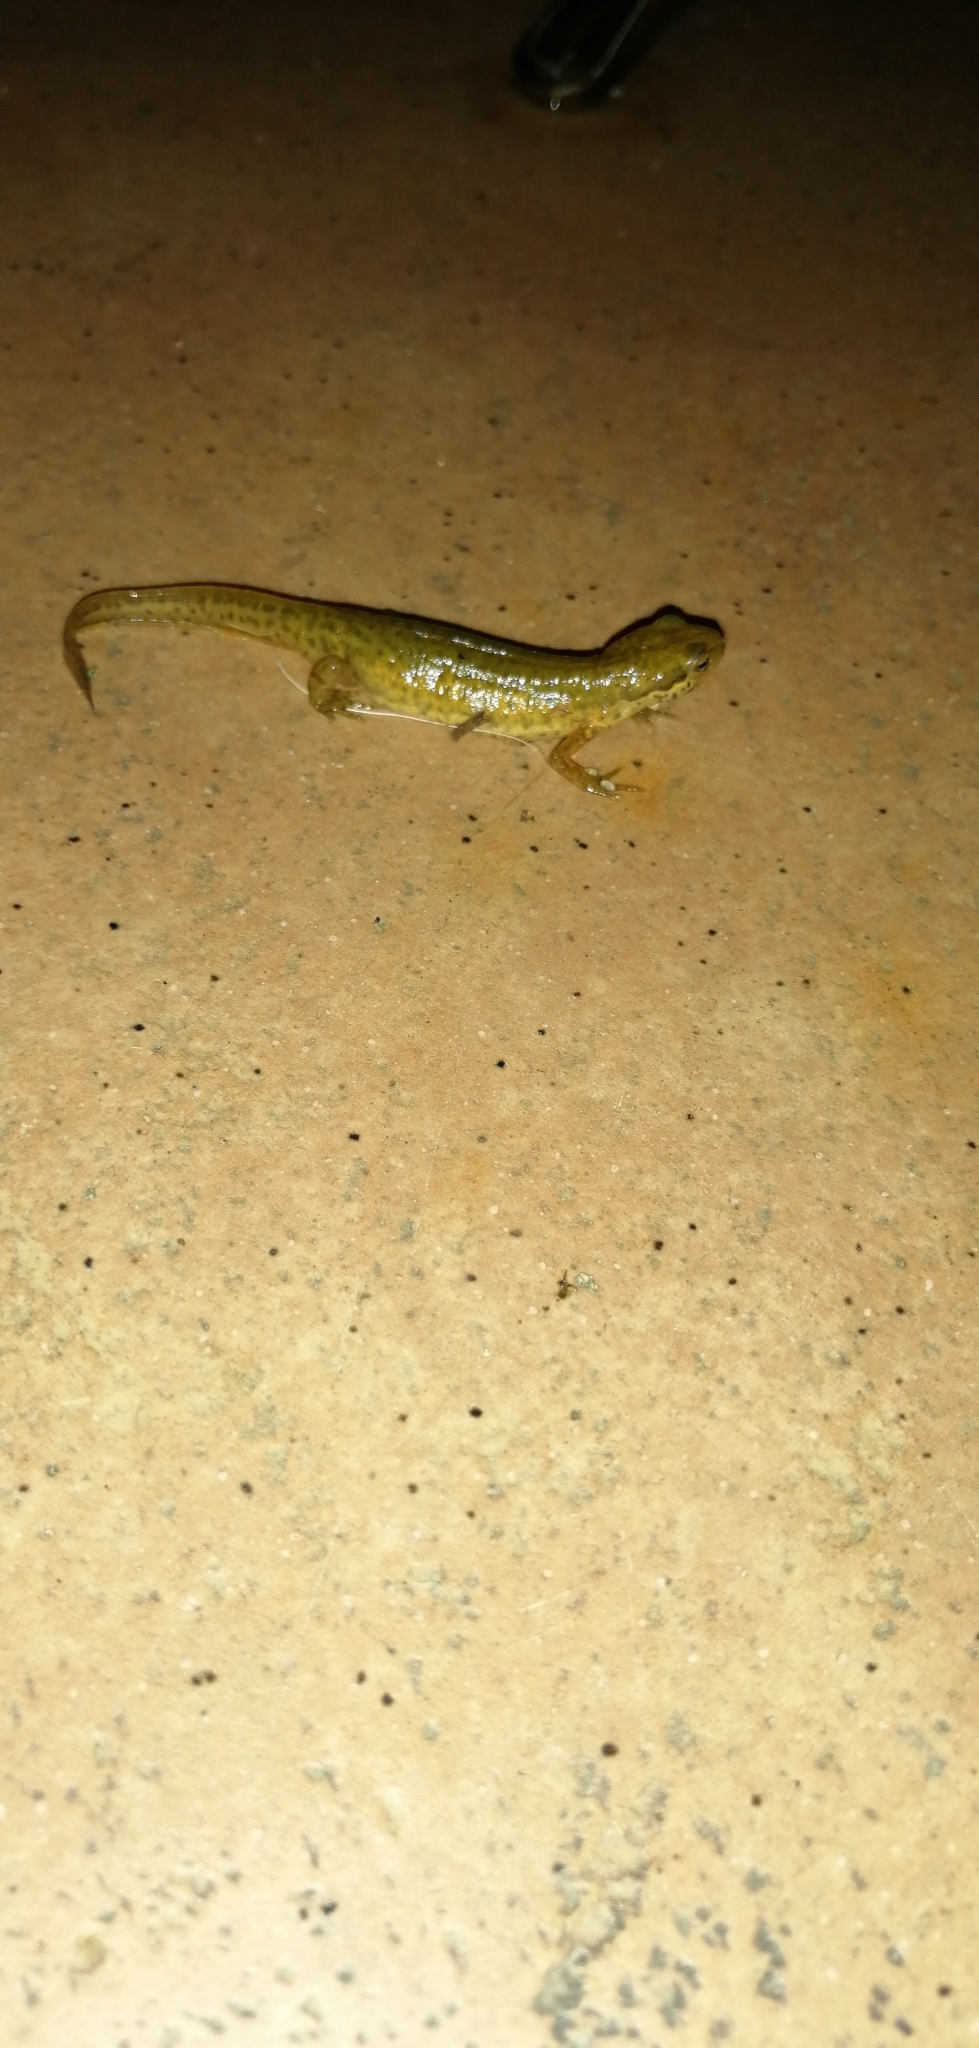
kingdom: Animalia
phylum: Chordata
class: Amphibia
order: Caudata
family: Salamandridae
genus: Lissotriton
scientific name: Lissotriton helveticus
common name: Palmate newt
